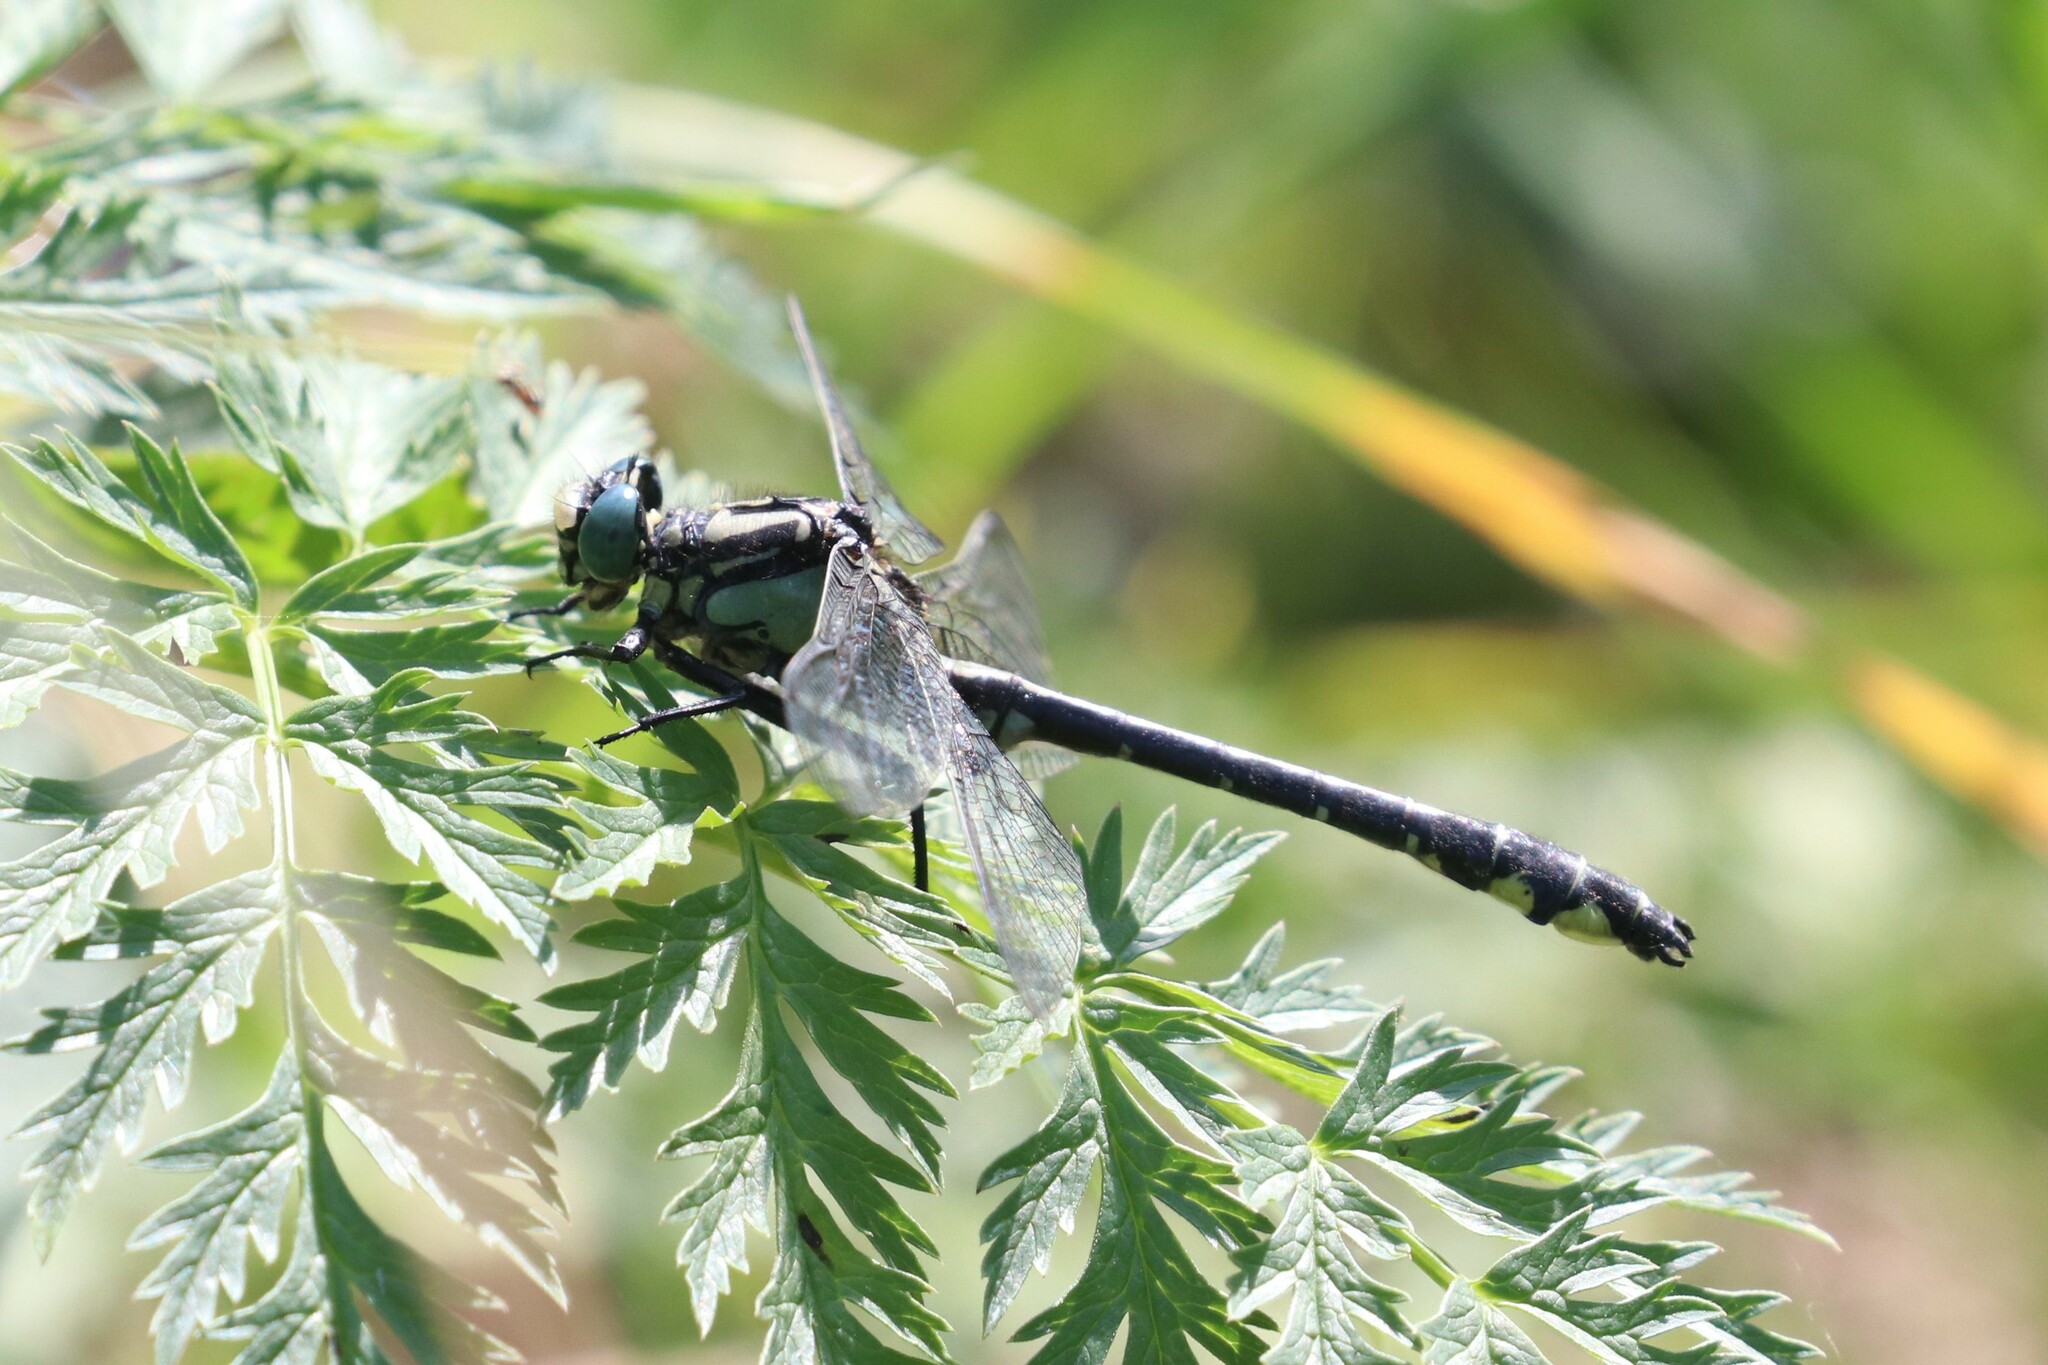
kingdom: Animalia
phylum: Arthropoda
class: Insecta
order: Odonata
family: Gomphidae
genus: Gomphus
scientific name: Gomphus vulgatissimus
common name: Club-tailed dragonfly
